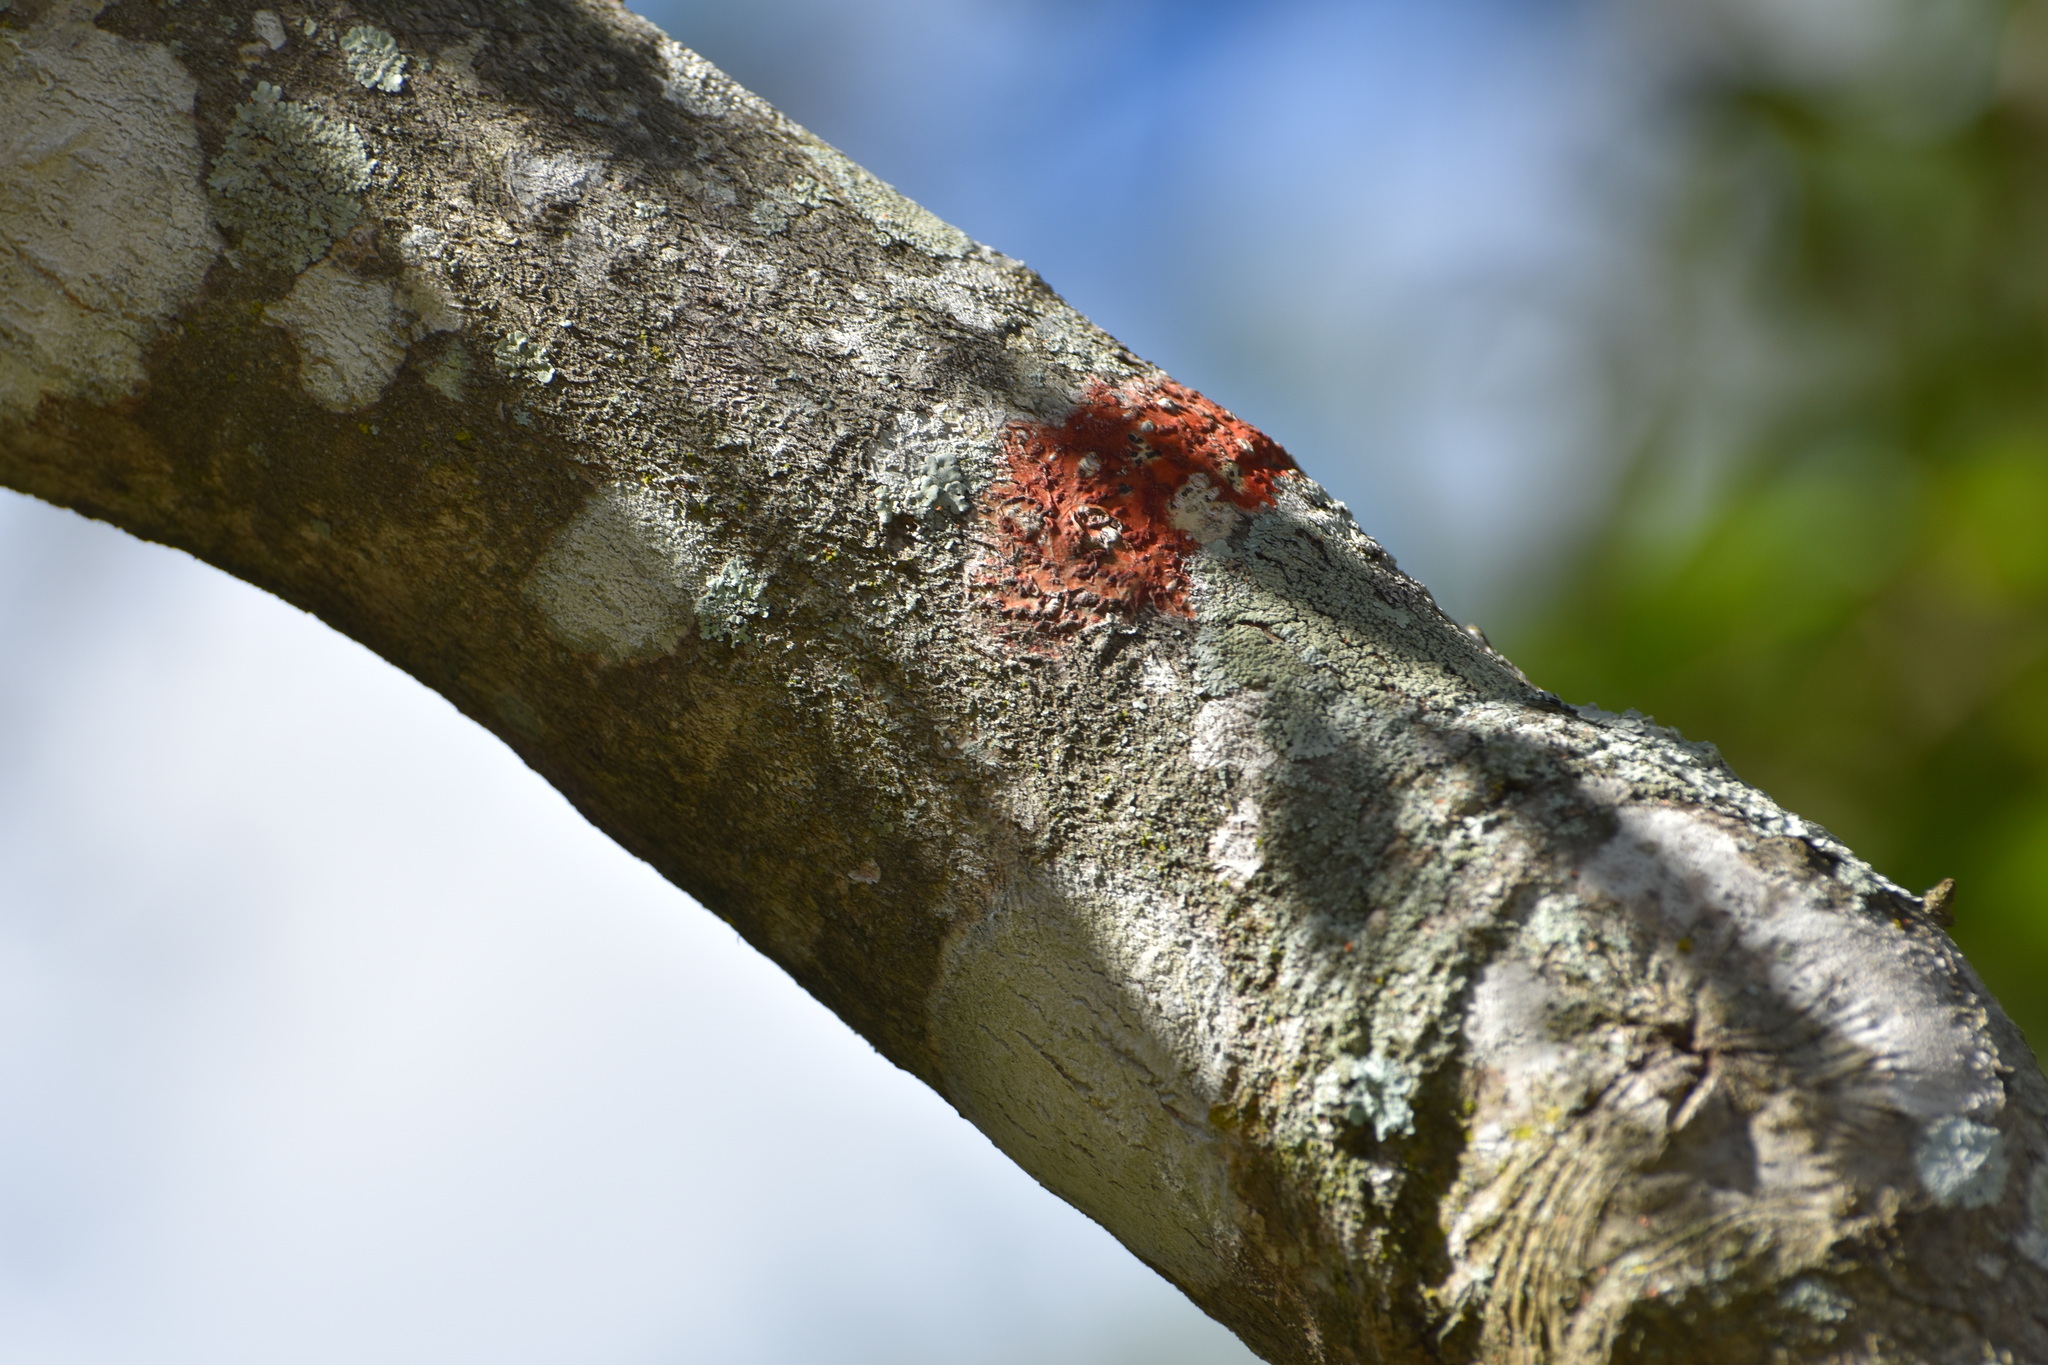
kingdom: Fungi
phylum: Ascomycota
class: Eurotiomycetes
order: Pyrenulales
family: Pyrenulaceae
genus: Pyrenula
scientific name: Pyrenula cruenta
